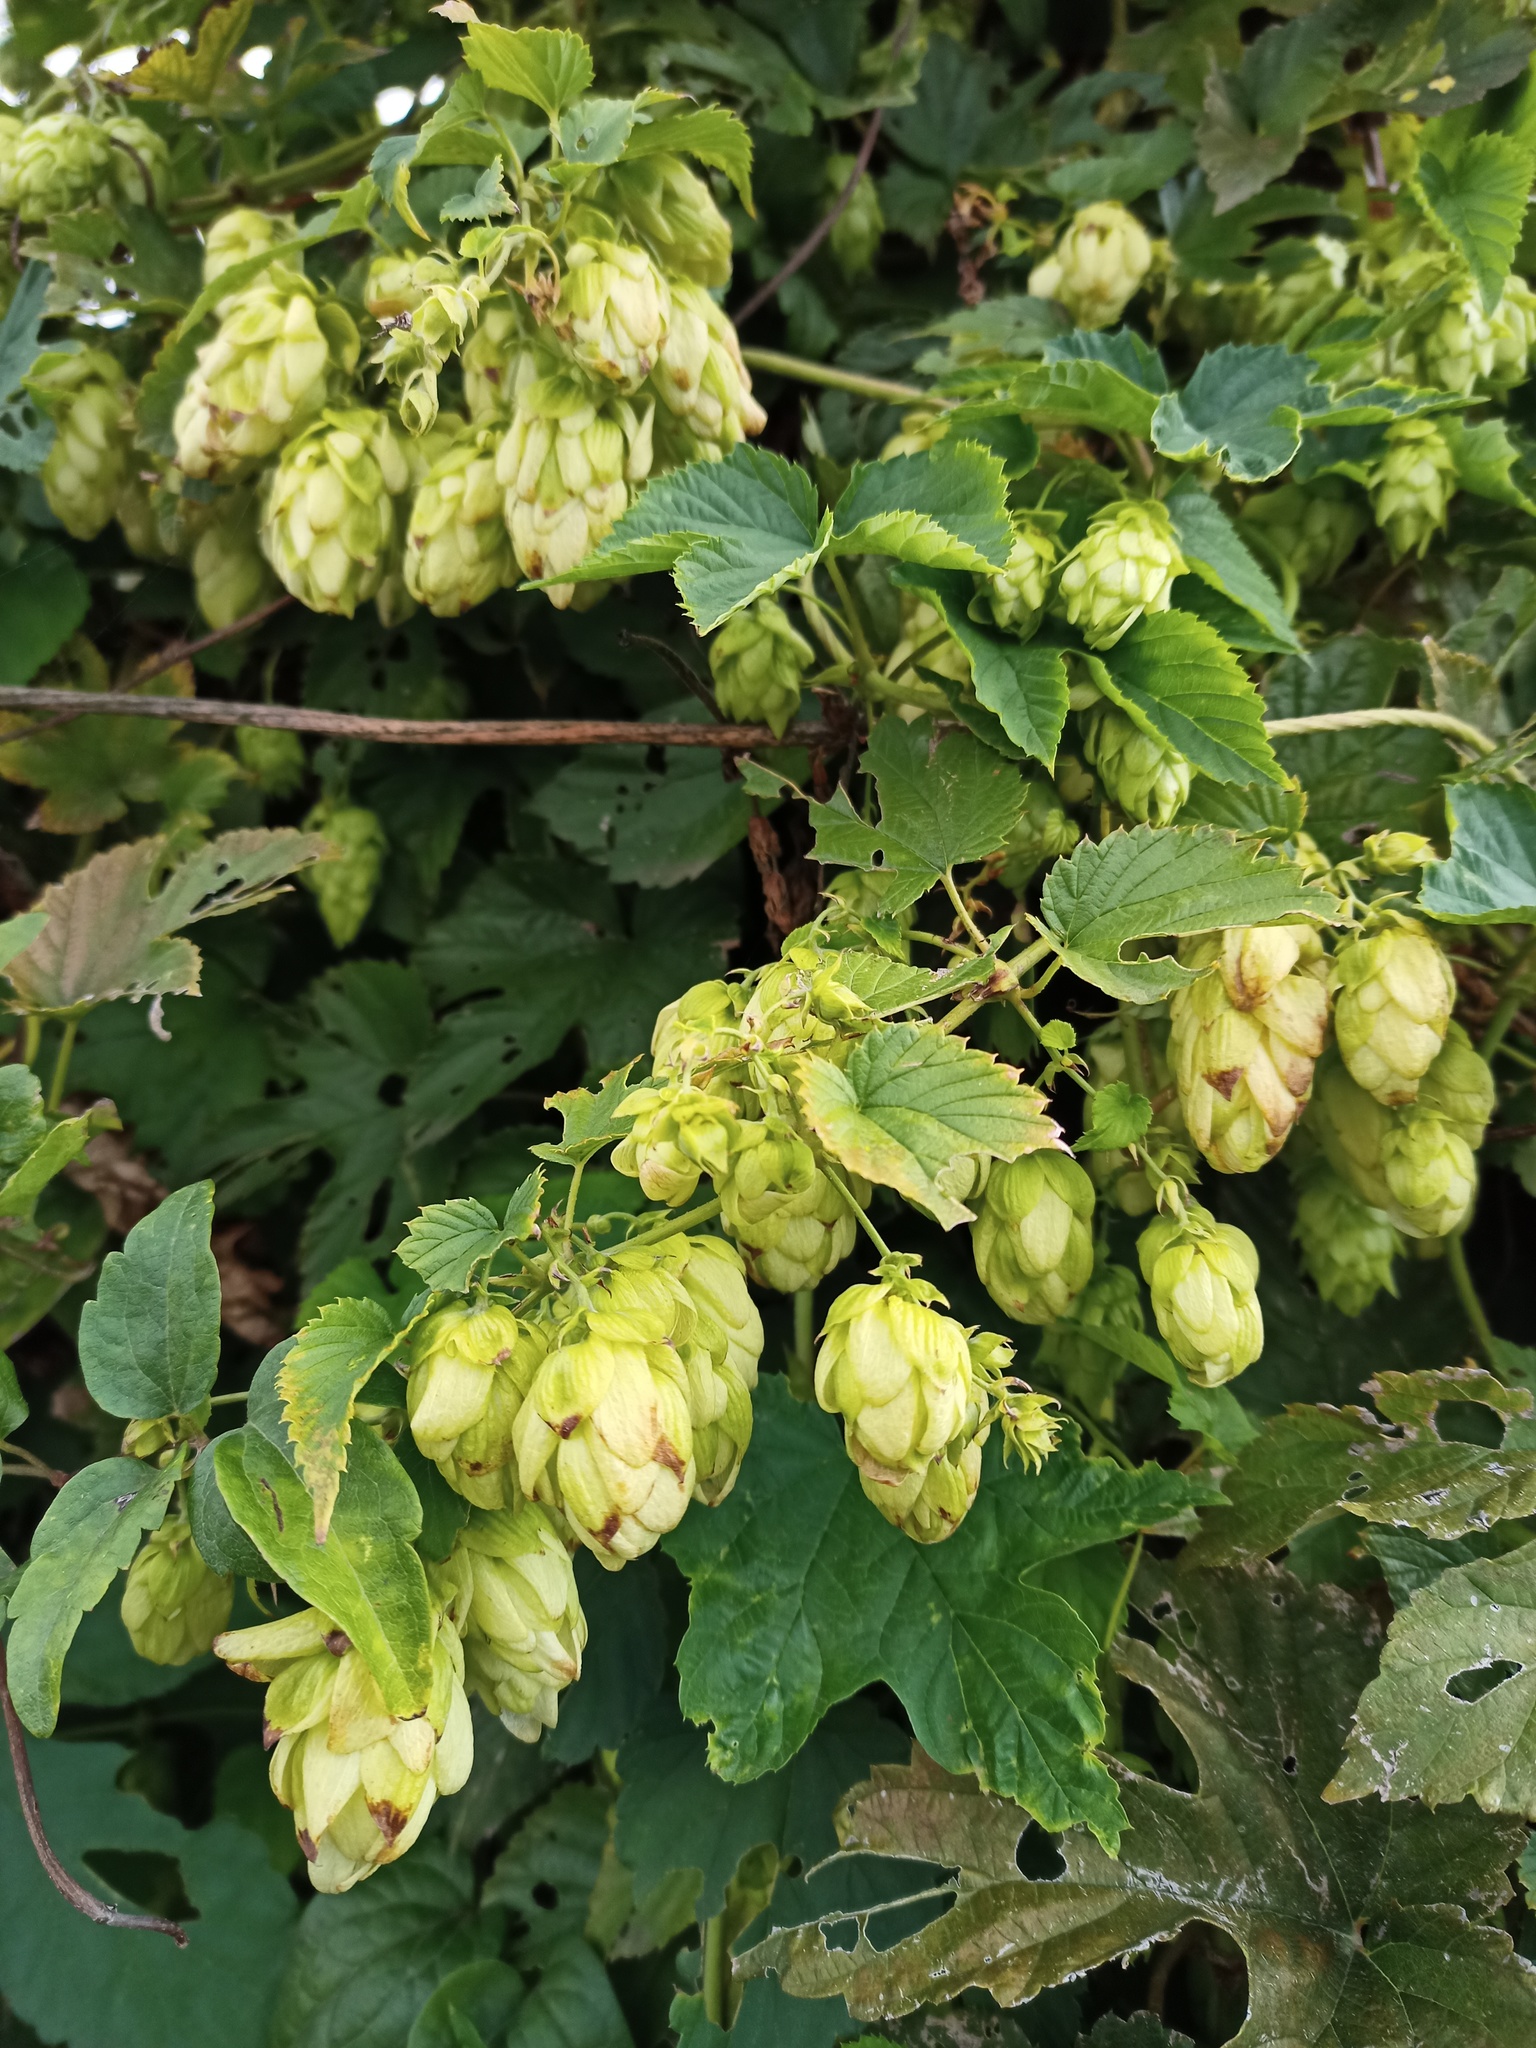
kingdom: Plantae
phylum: Tracheophyta
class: Magnoliopsida
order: Rosales
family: Cannabaceae
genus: Humulus
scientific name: Humulus lupulus
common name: Hop
